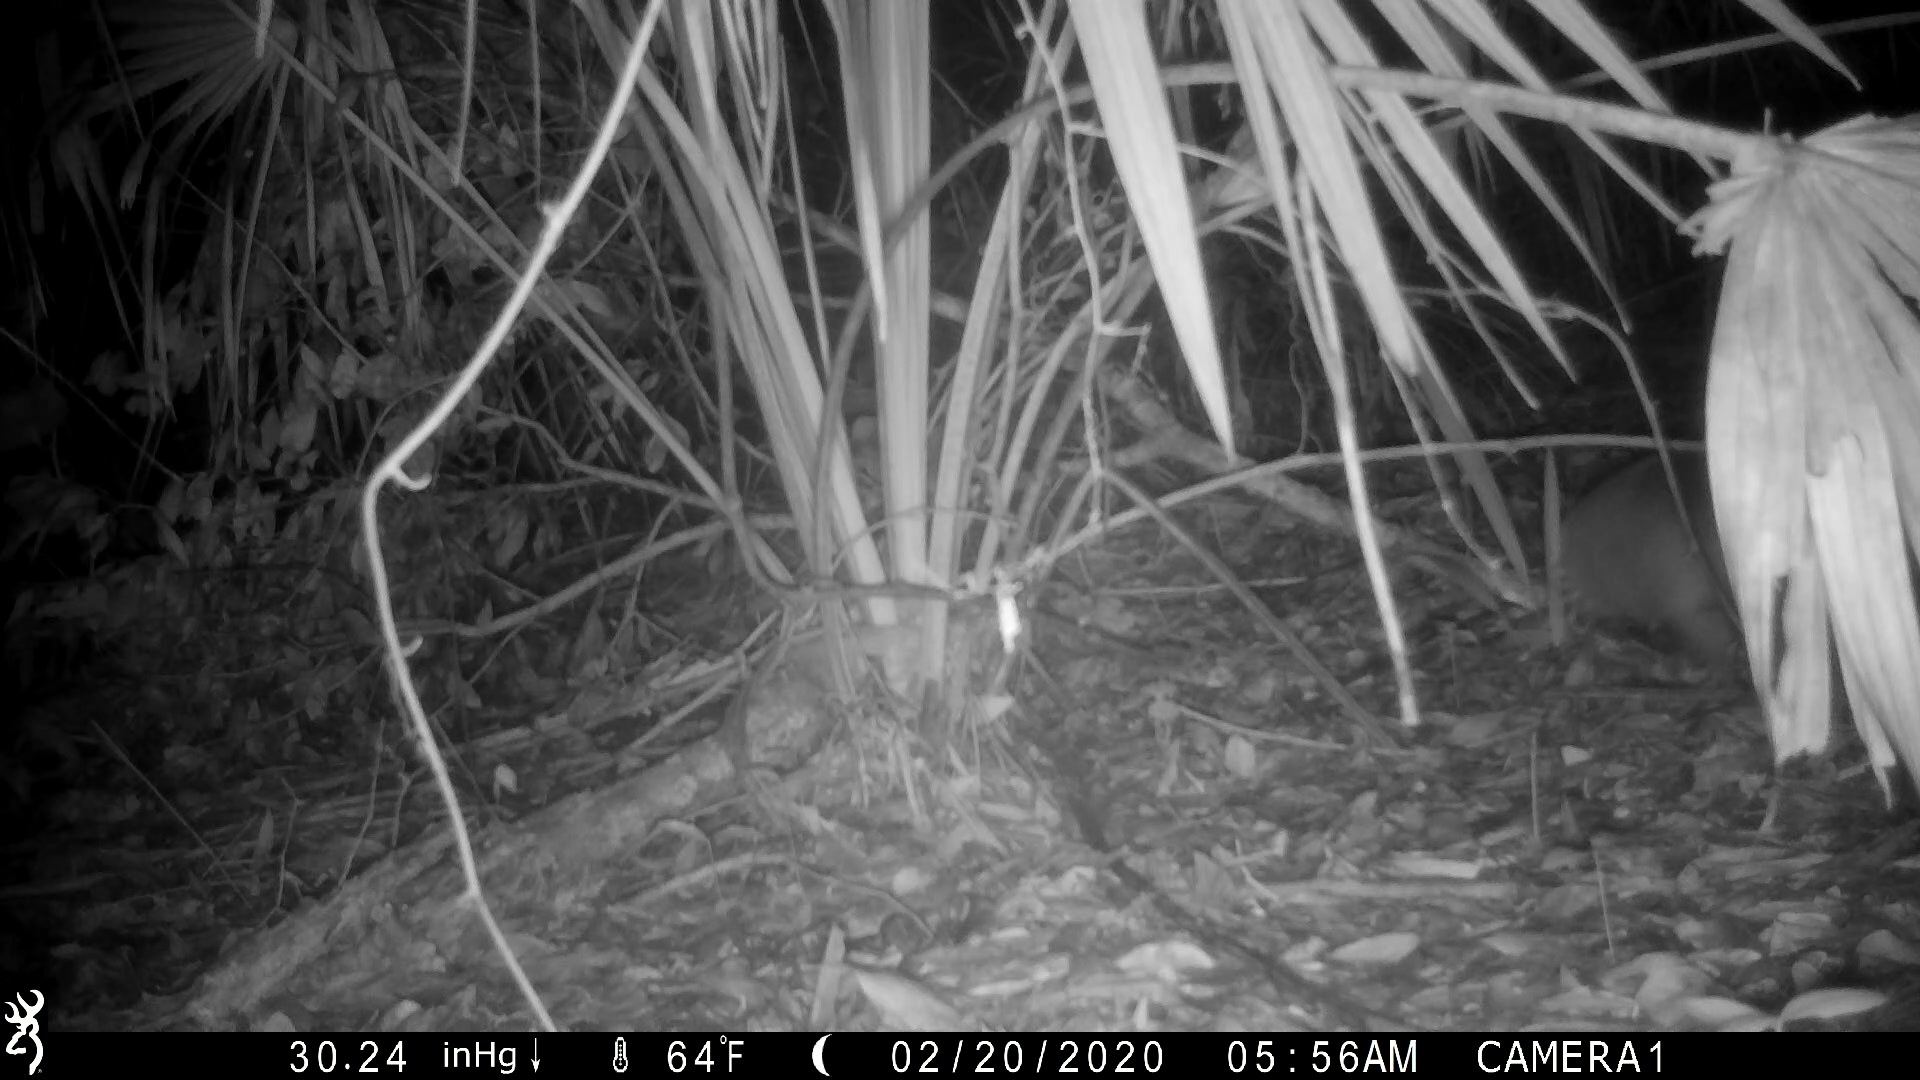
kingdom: Animalia
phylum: Chordata
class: Mammalia
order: Cingulata
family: Dasypodidae
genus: Dasypus
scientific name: Dasypus novemcinctus
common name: Nine-banded armadillo
